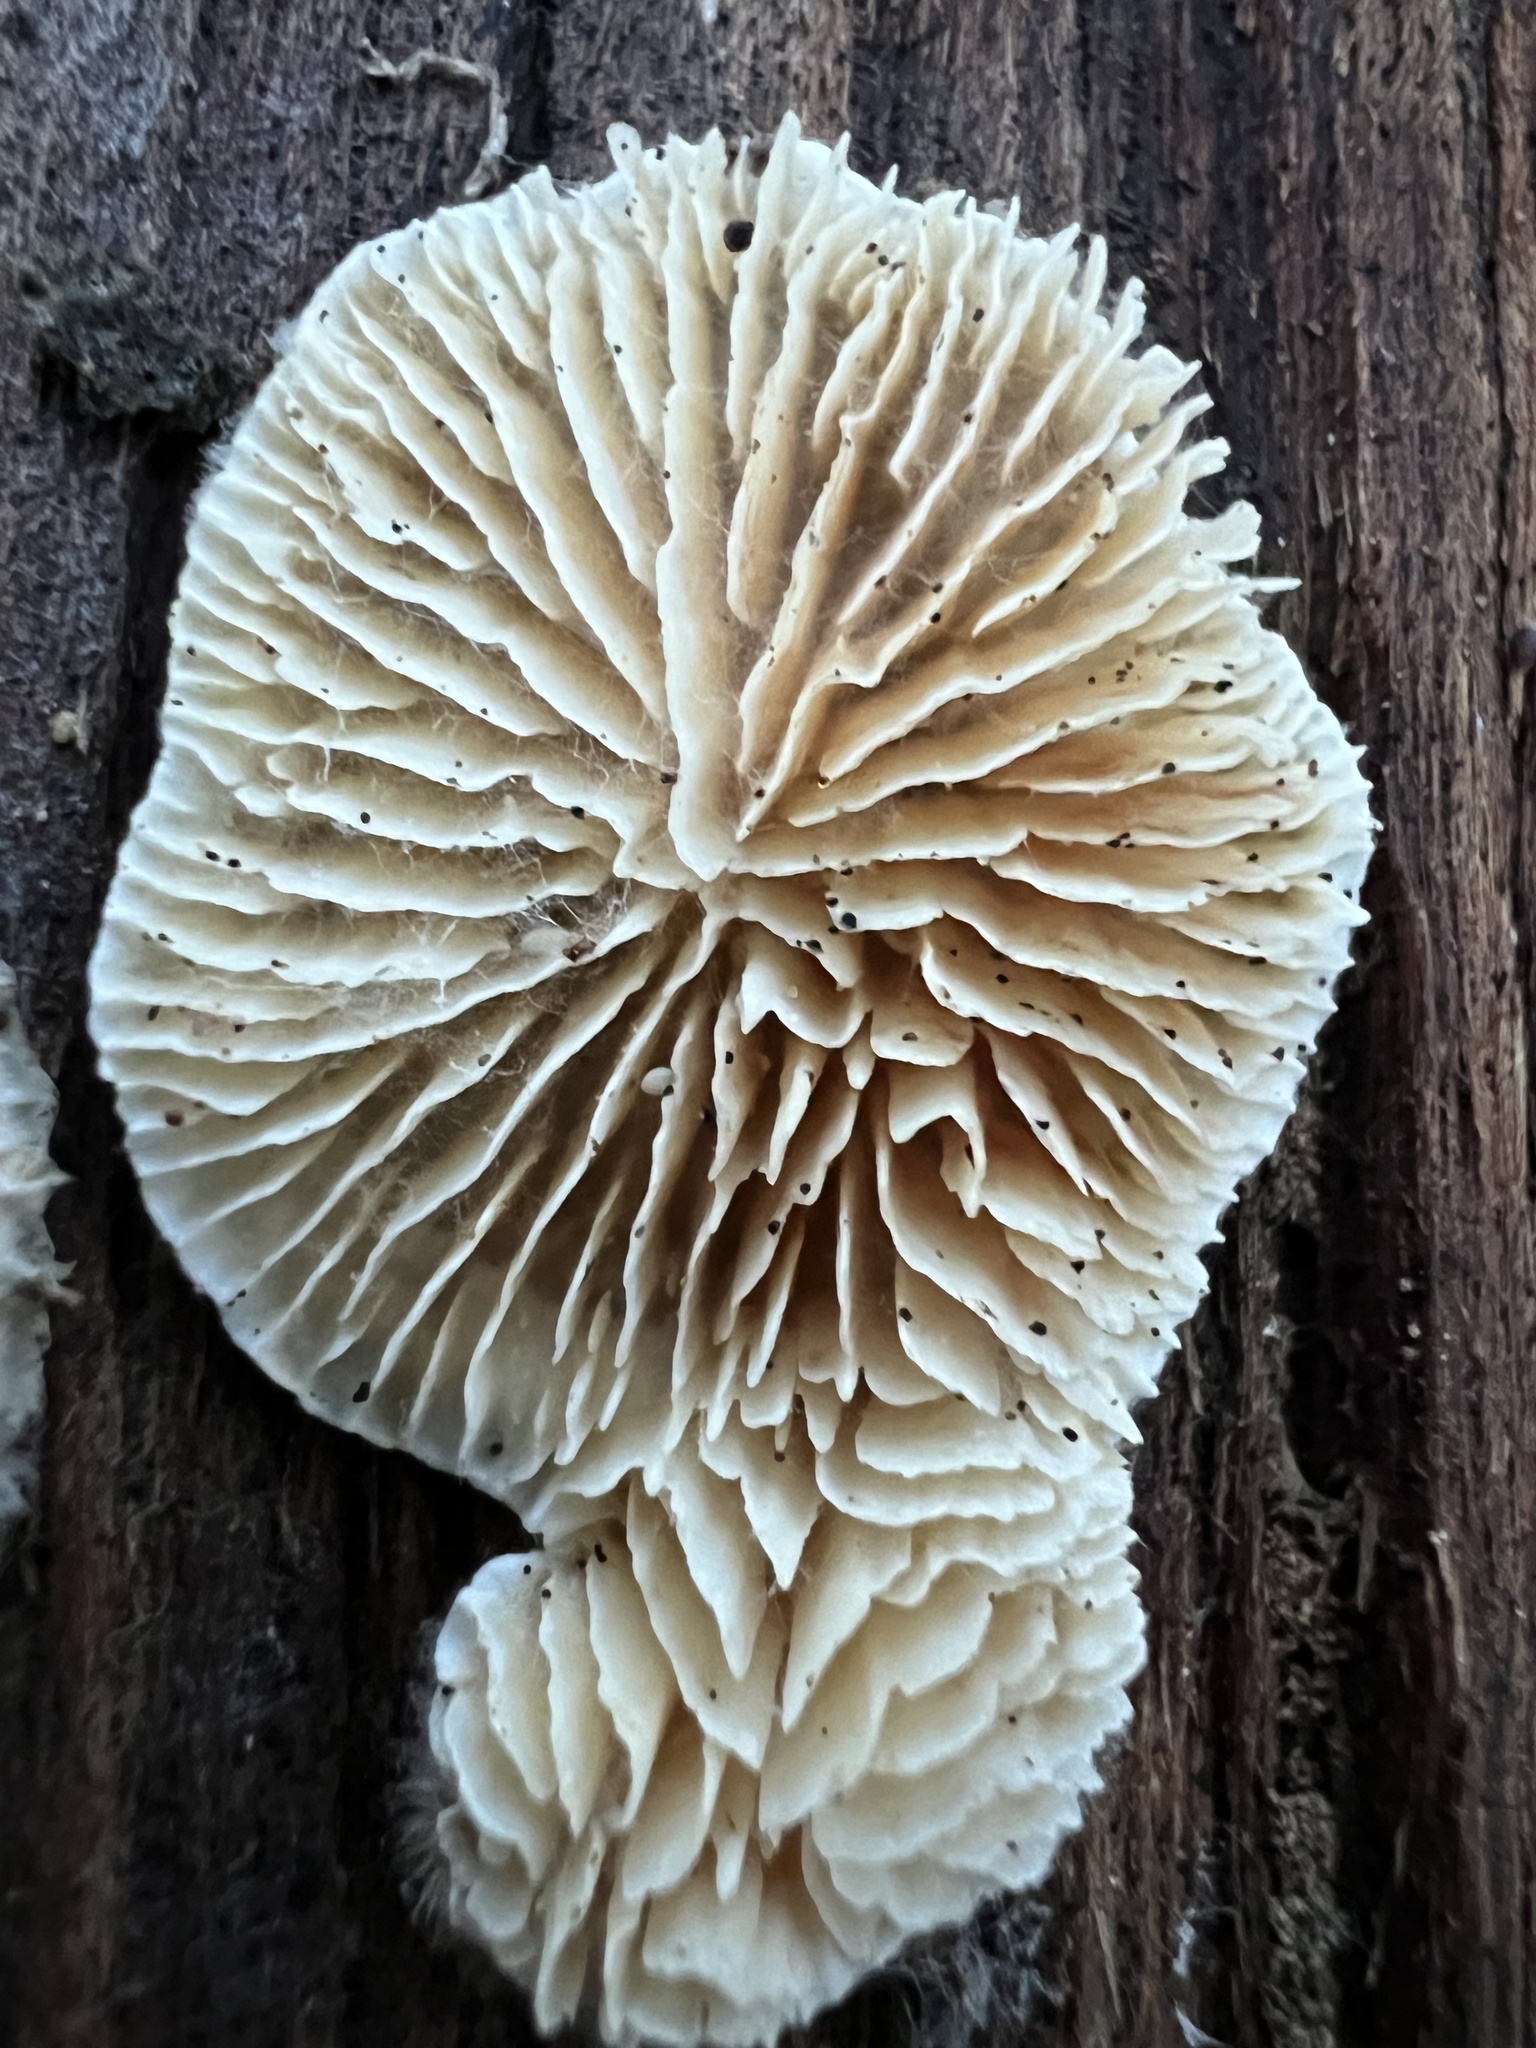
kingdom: Fungi
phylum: Basidiomycota
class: Agaricomycetes
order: Polyporales
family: Polyporaceae
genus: Lenzites
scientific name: Lenzites betulinus
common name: Birch mazegill
